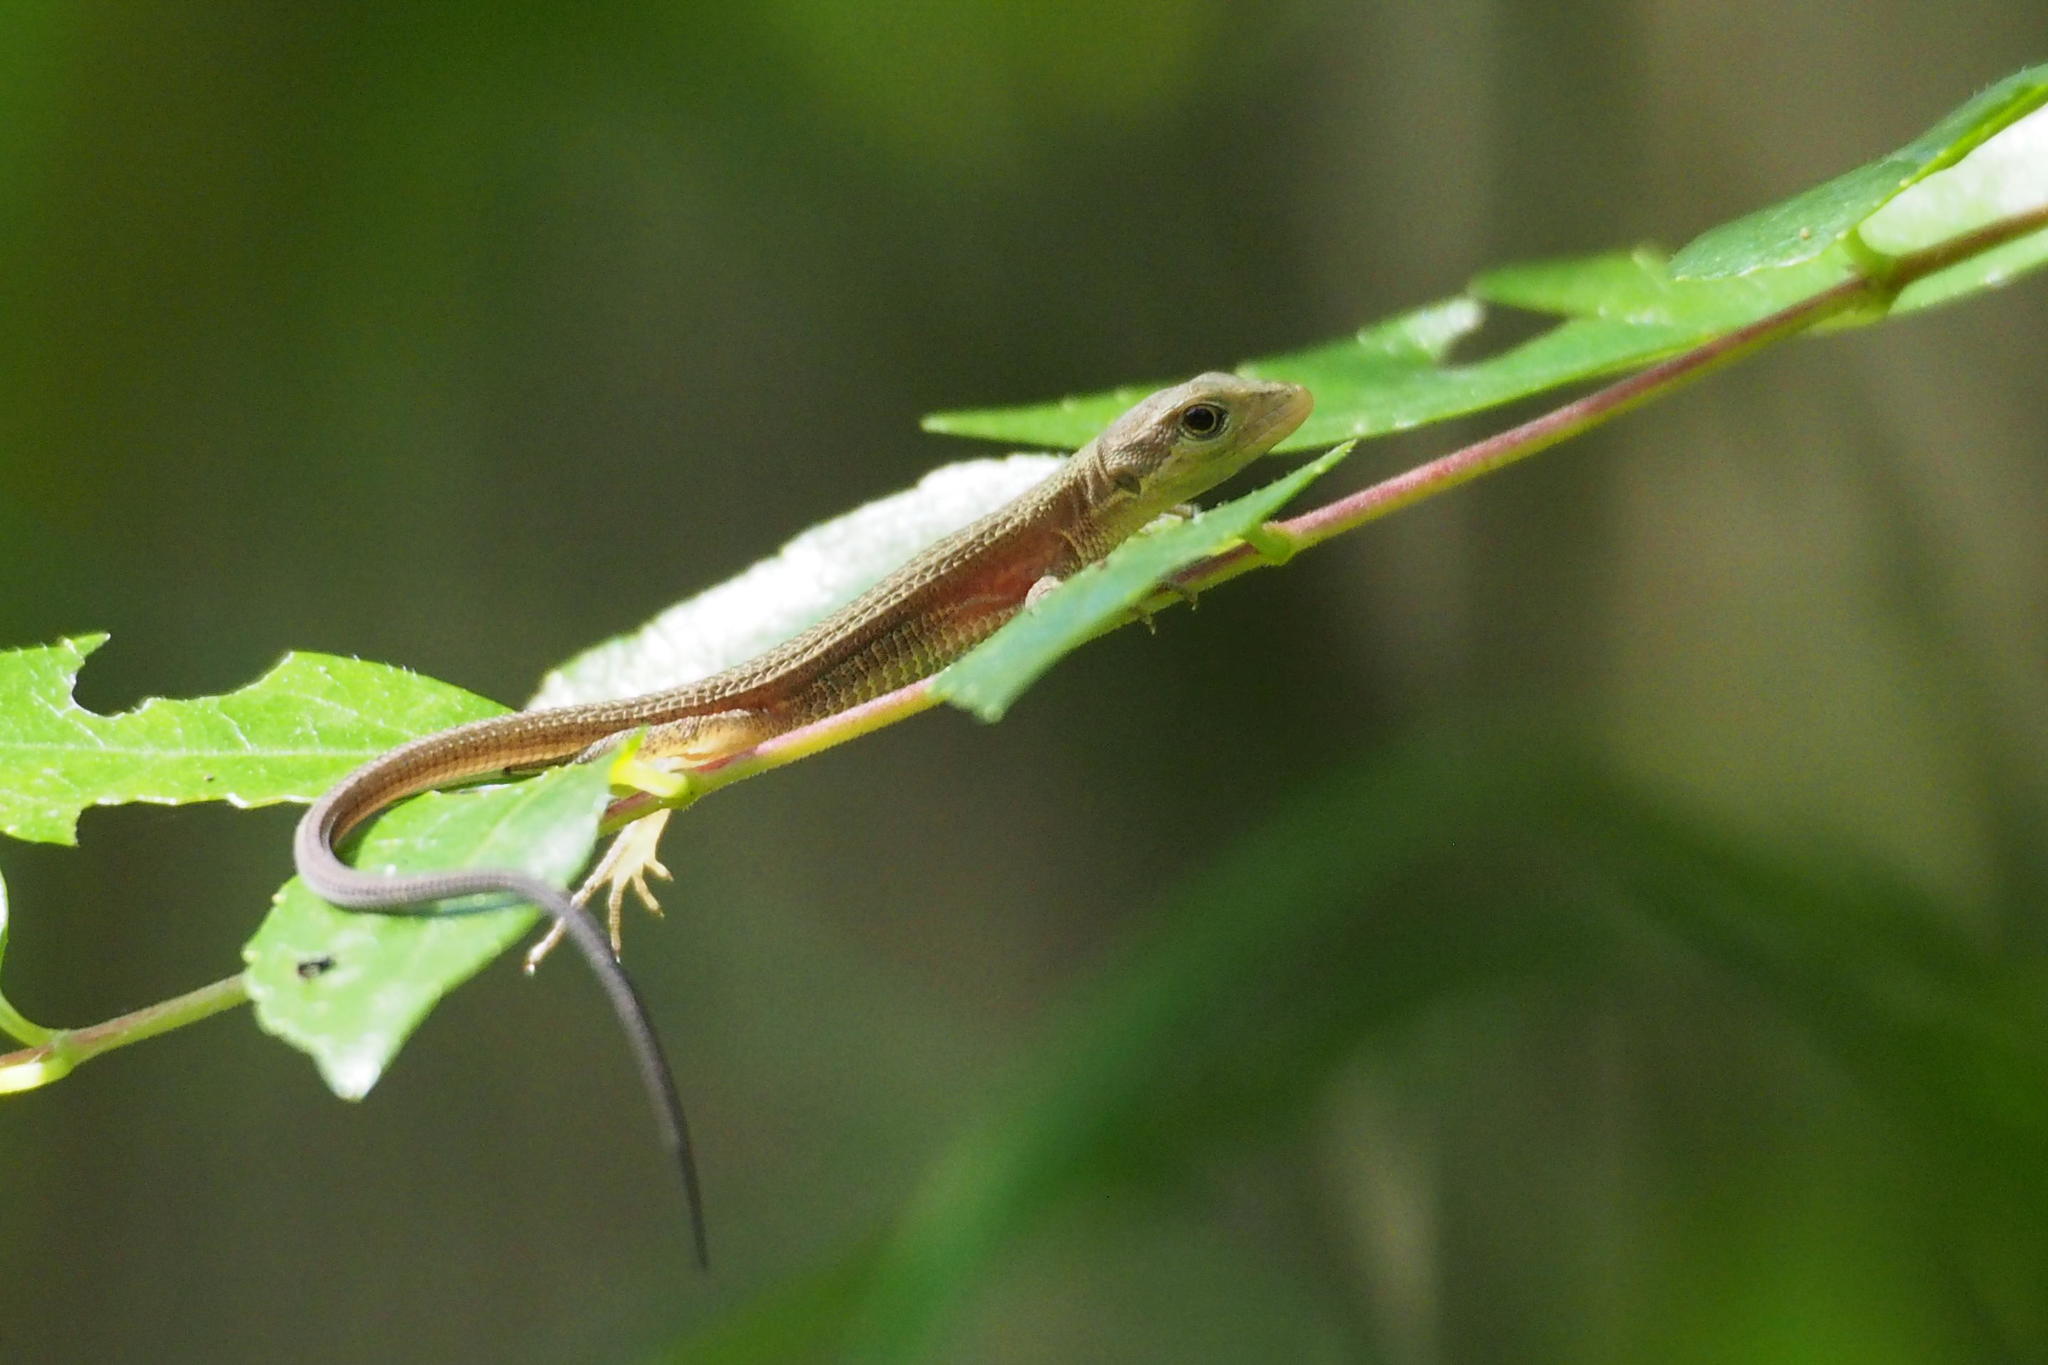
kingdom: Animalia
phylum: Chordata
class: Squamata
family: Lacertidae
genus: Takydromus
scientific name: Takydromus tachydromoides
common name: Japanese grass lizard
